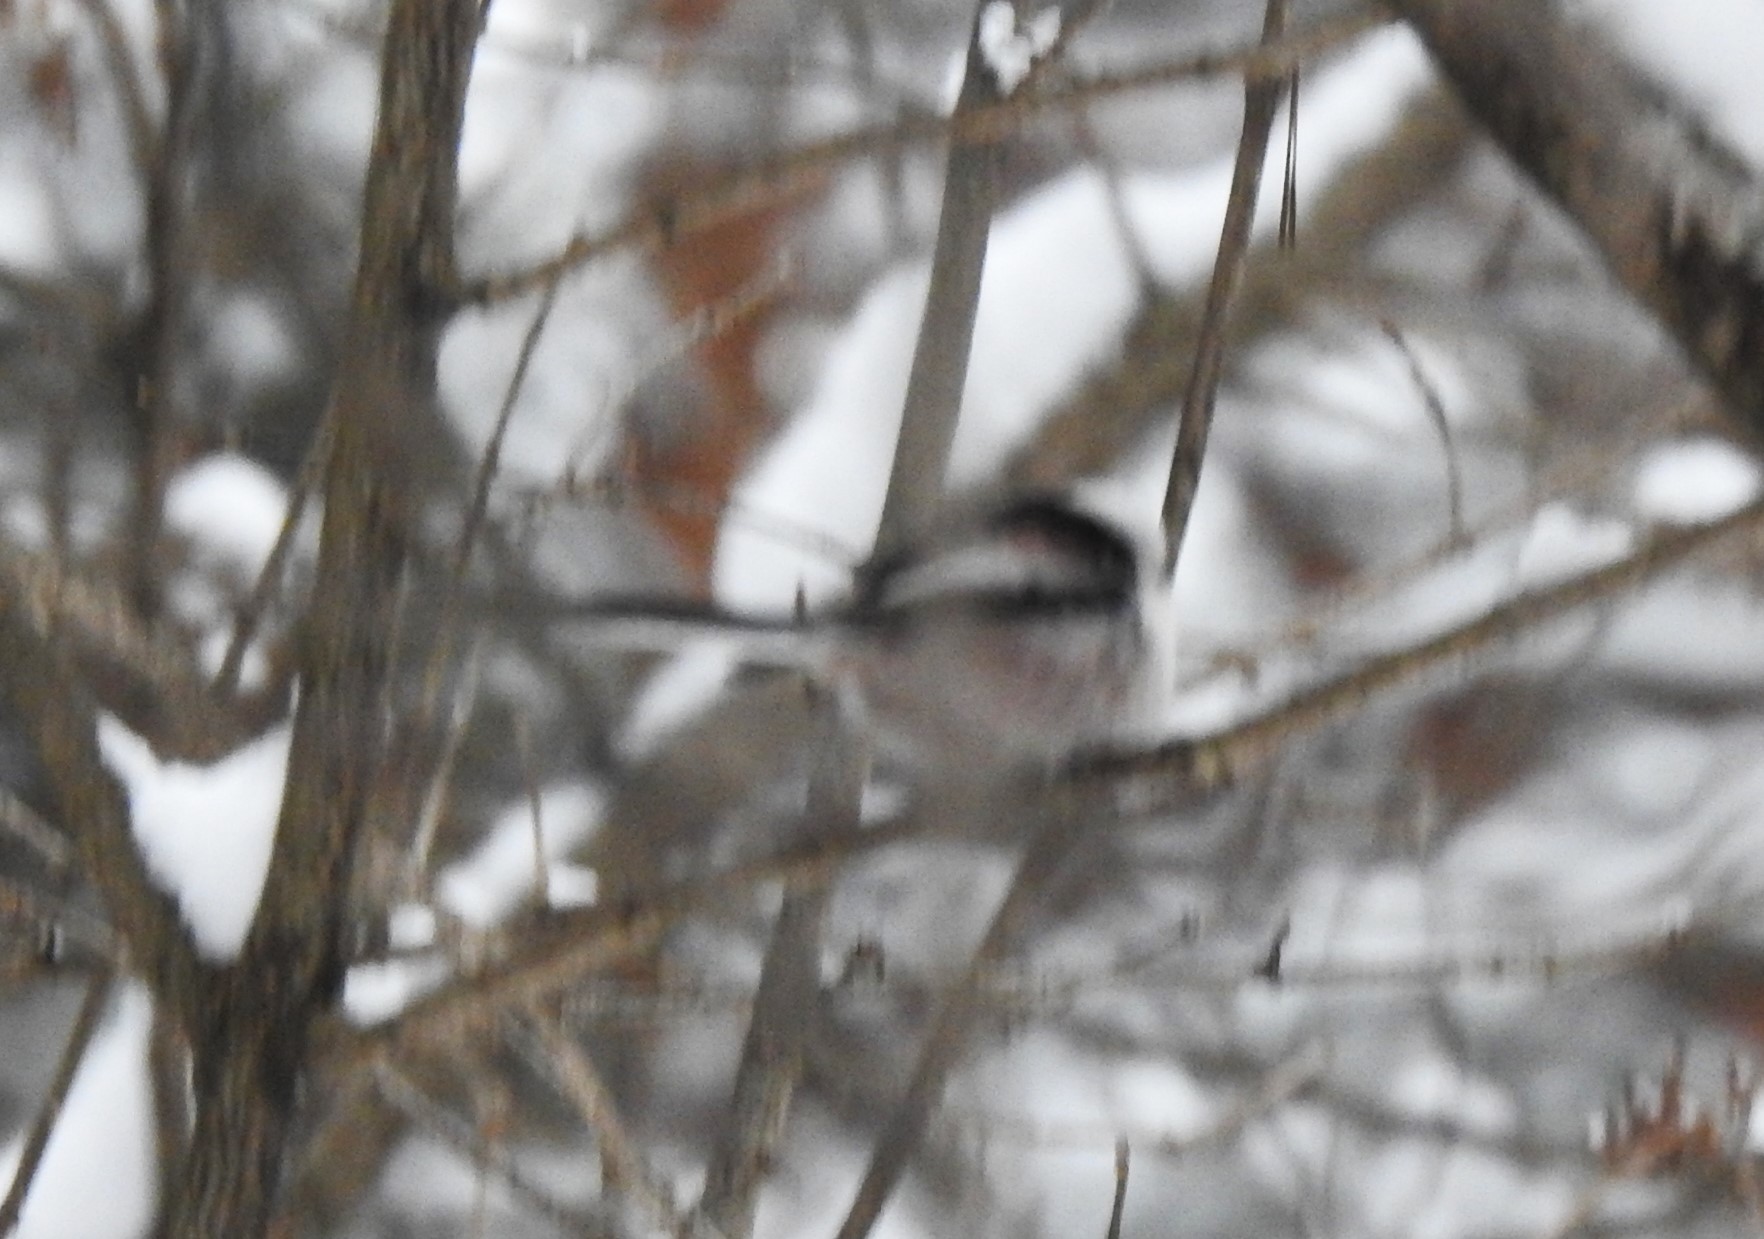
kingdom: Animalia
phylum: Chordata
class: Aves
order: Passeriformes
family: Aegithalidae
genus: Aegithalos
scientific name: Aegithalos caudatus
